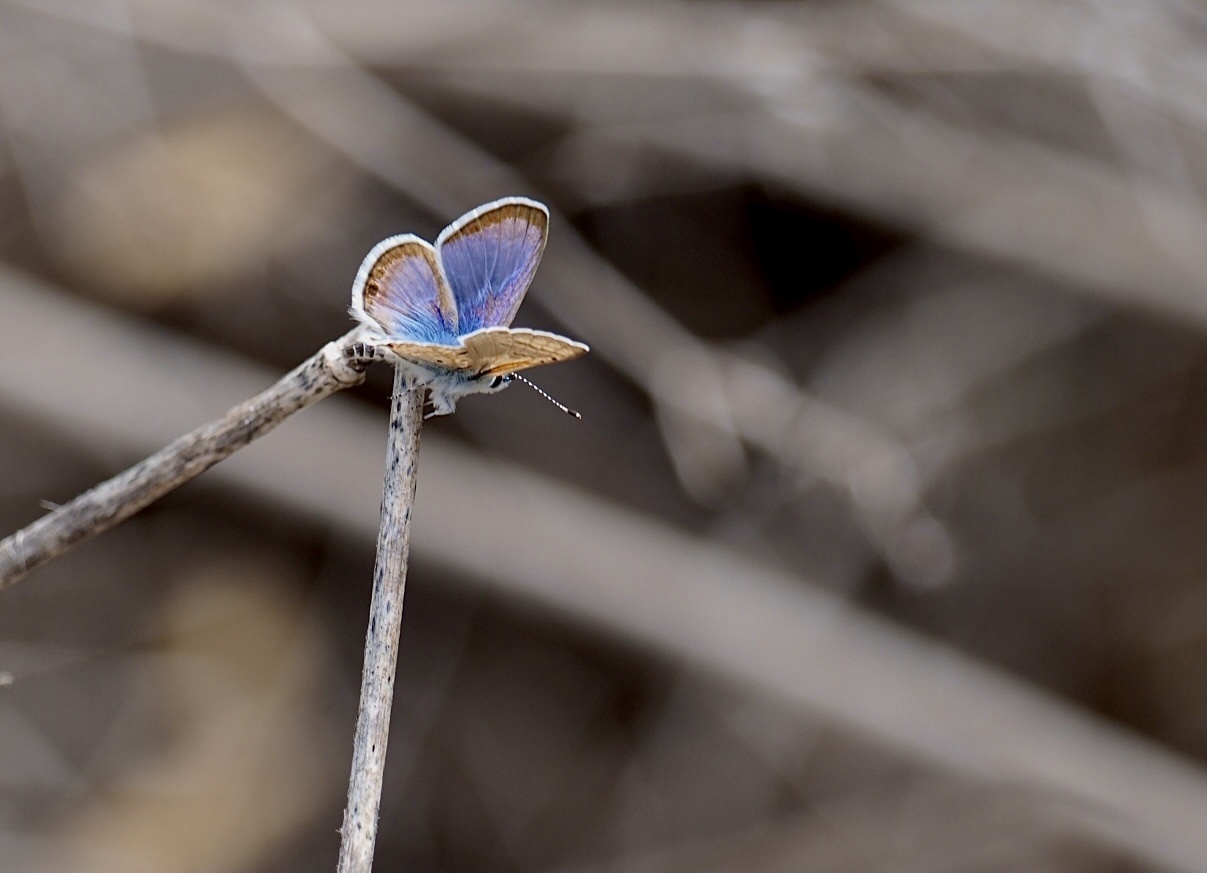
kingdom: Animalia
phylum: Arthropoda
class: Insecta
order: Lepidoptera
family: Lycaenidae
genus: Azanus
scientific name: Azanus ubaldus
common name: Desert babul blue
